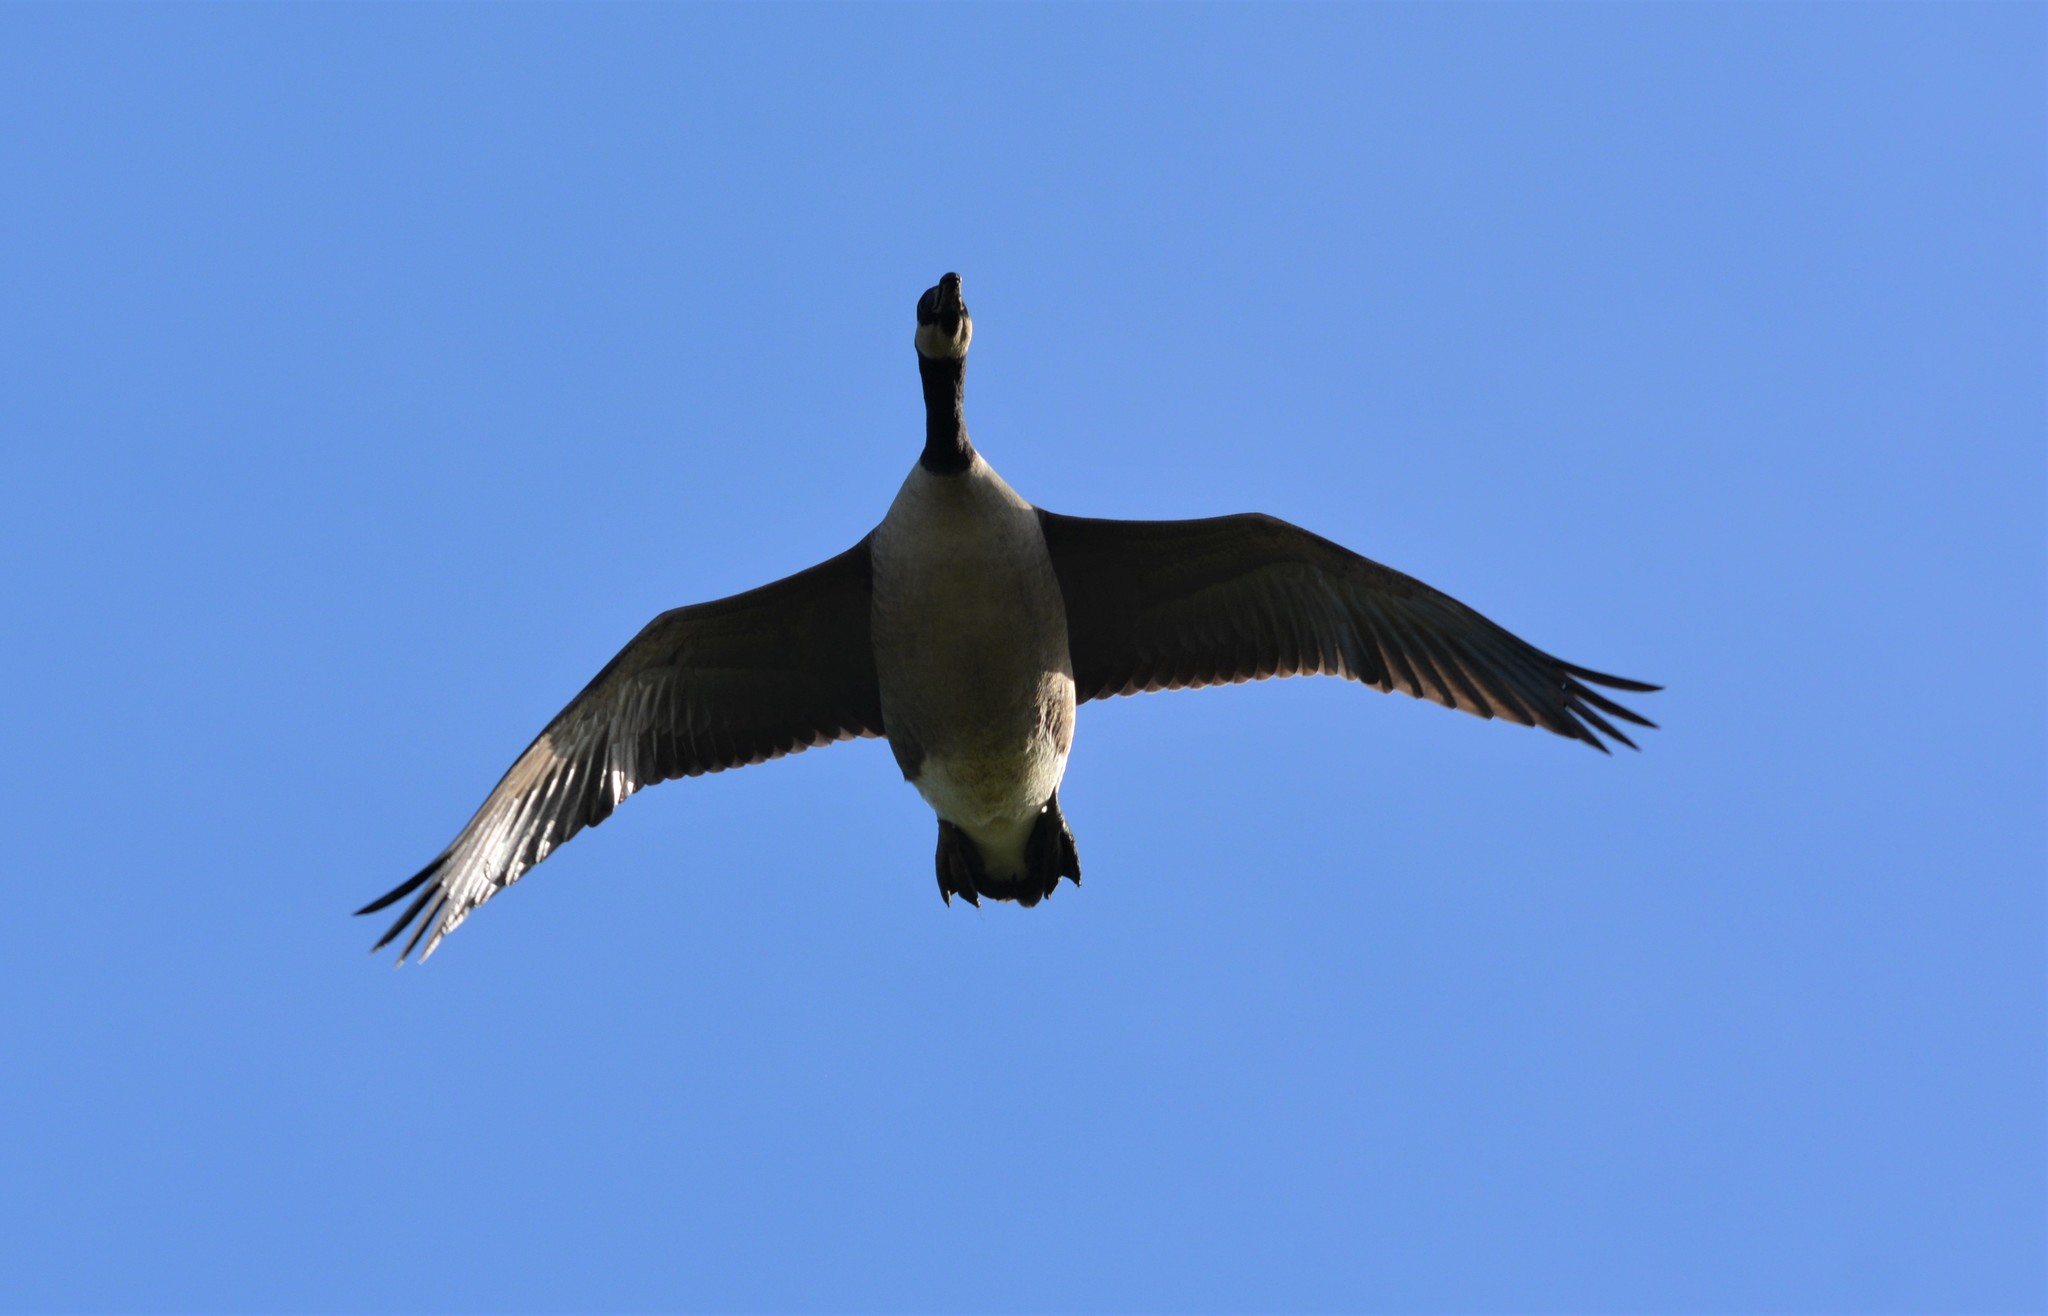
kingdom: Animalia
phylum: Chordata
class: Aves
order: Anseriformes
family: Anatidae
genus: Branta
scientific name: Branta canadensis
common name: Canada goose
